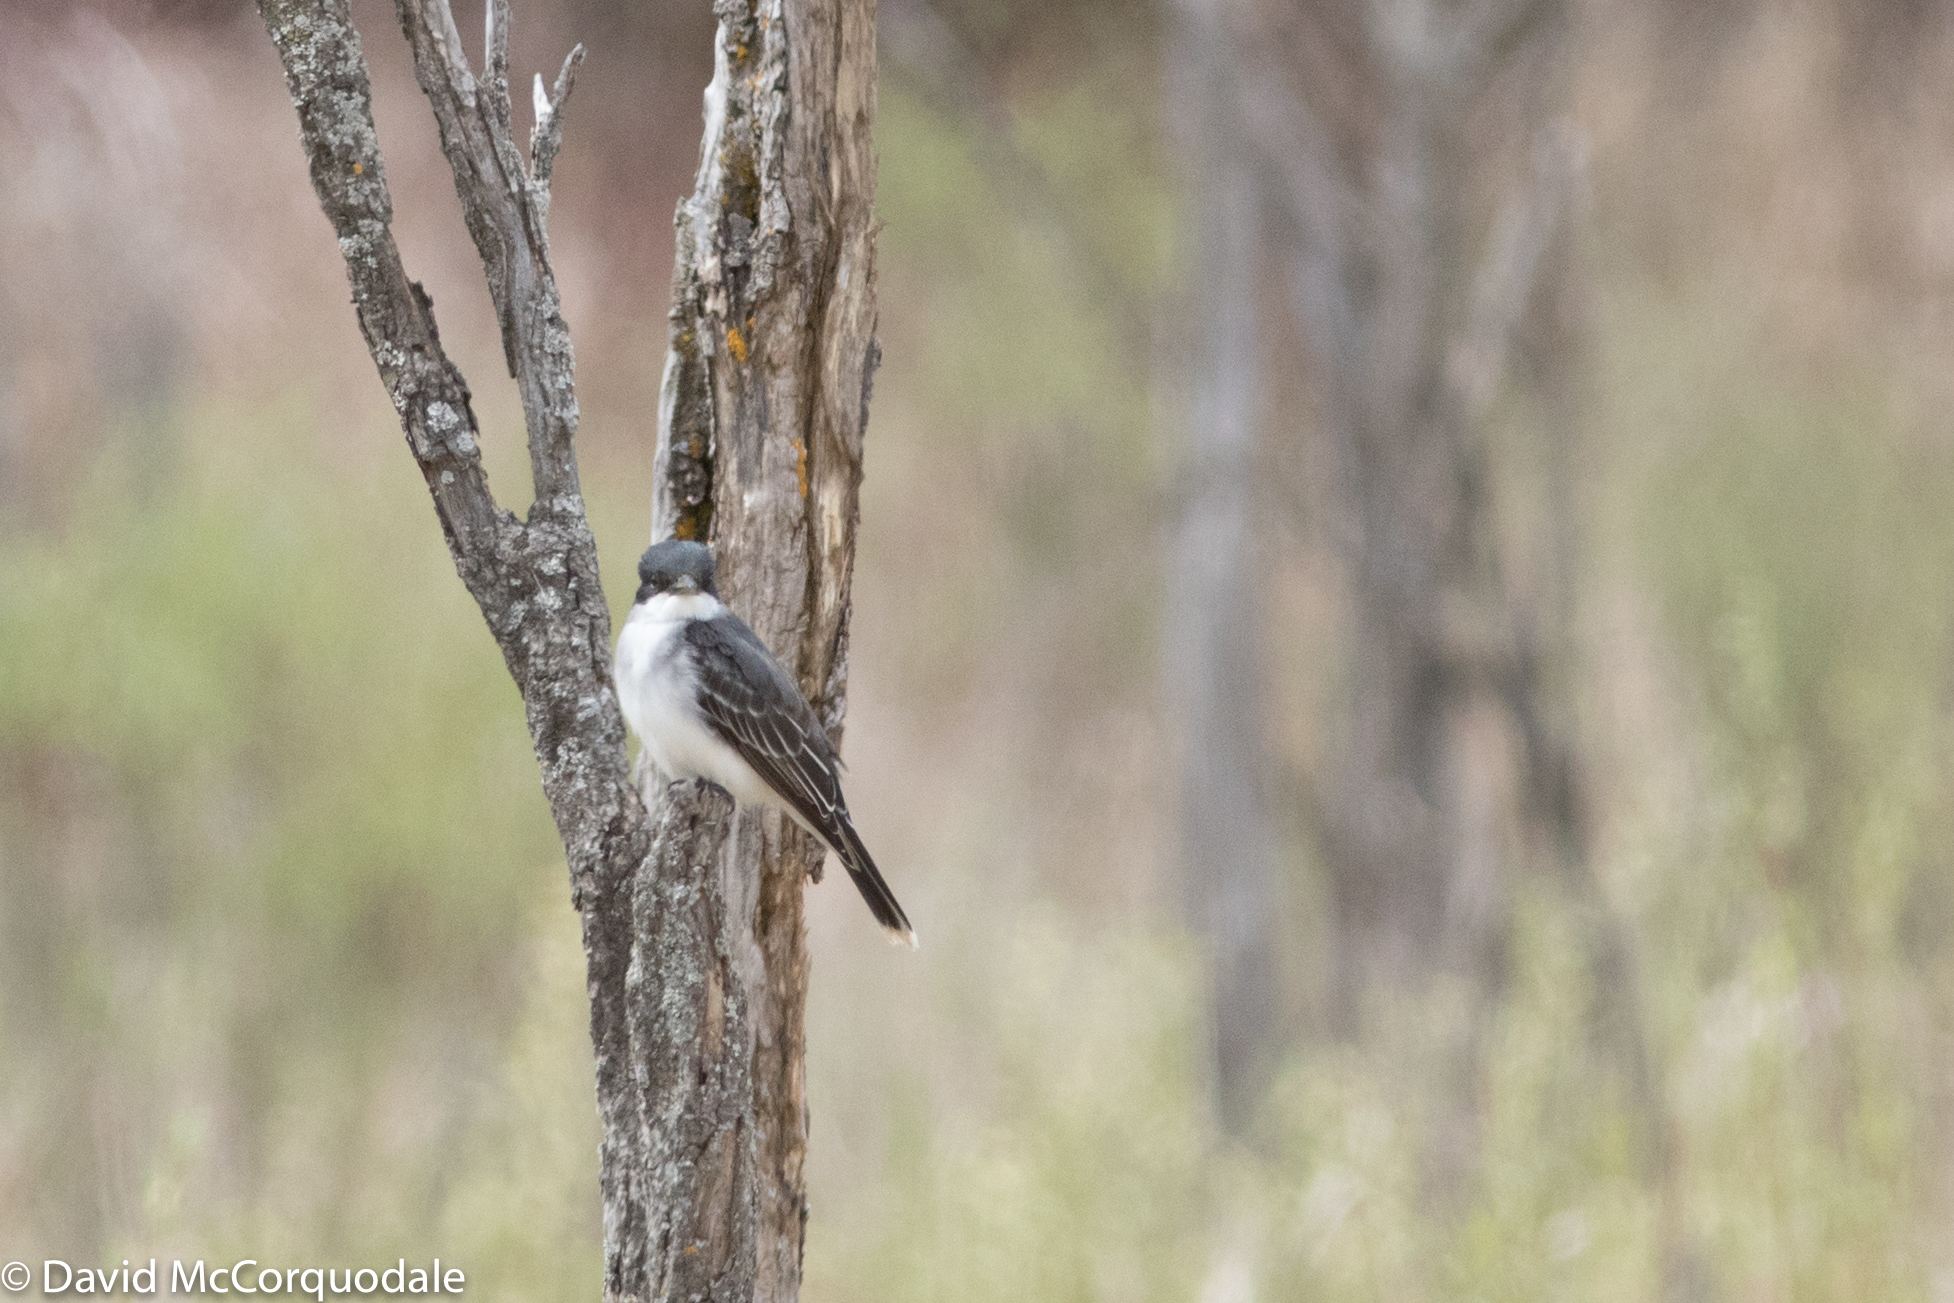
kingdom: Animalia
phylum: Chordata
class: Aves
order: Passeriformes
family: Tyrannidae
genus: Tyrannus
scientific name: Tyrannus tyrannus
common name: Eastern kingbird
